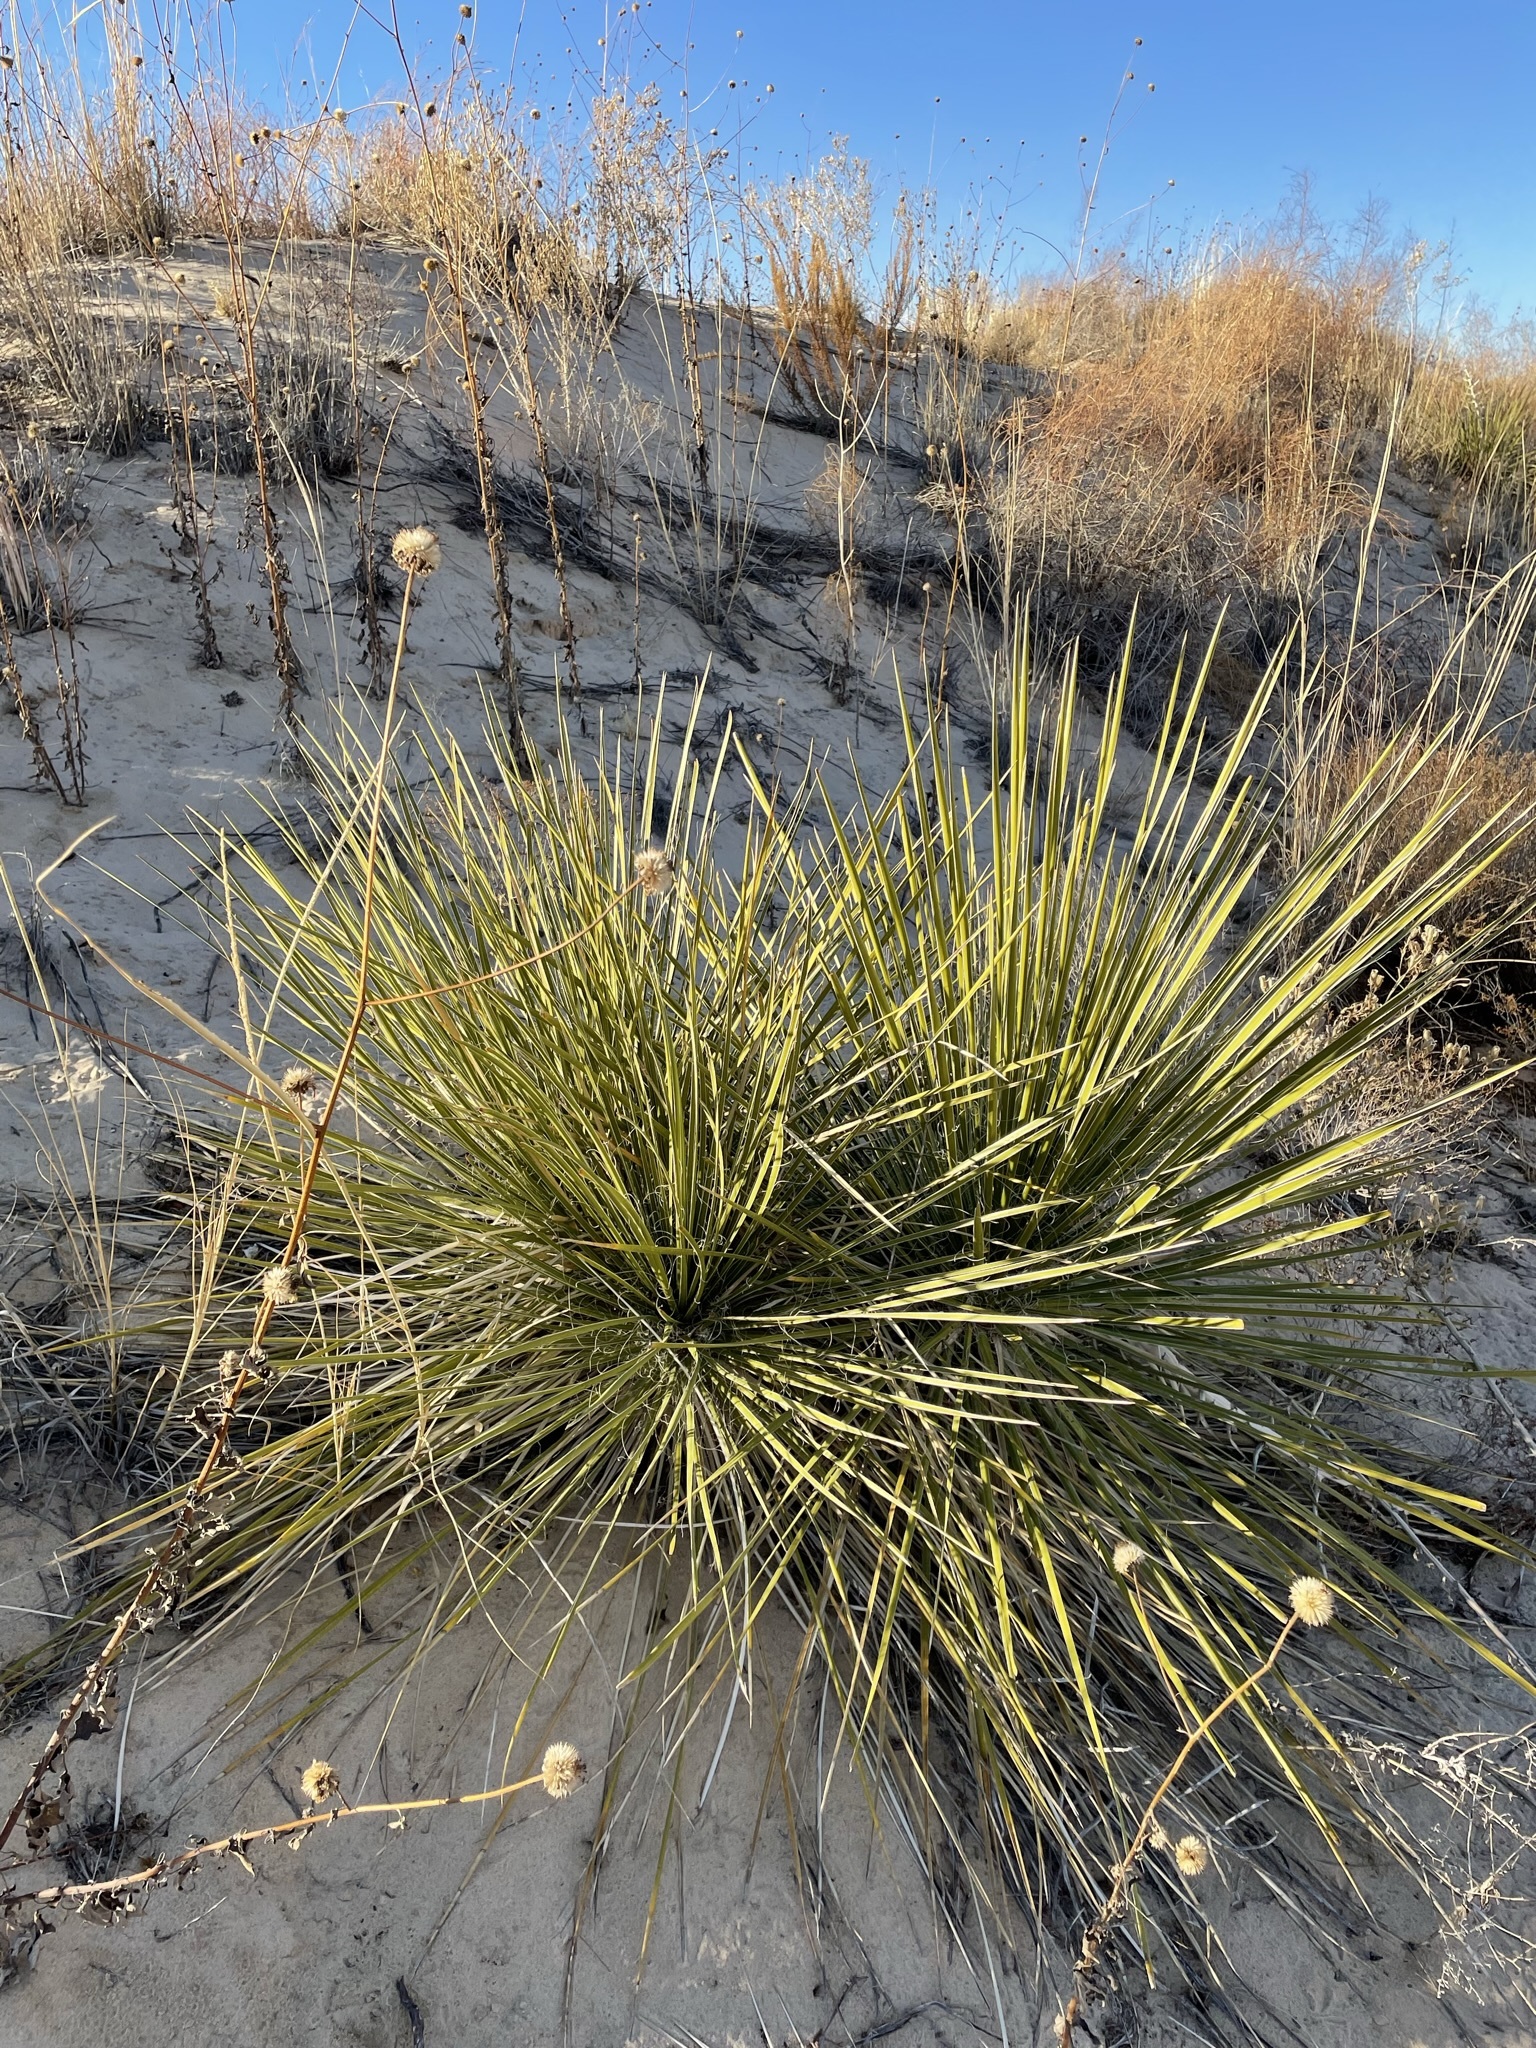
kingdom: Plantae
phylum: Tracheophyta
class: Liliopsida
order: Asparagales
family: Asparagaceae
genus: Yucca
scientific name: Yucca campestris
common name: Plains yucca
